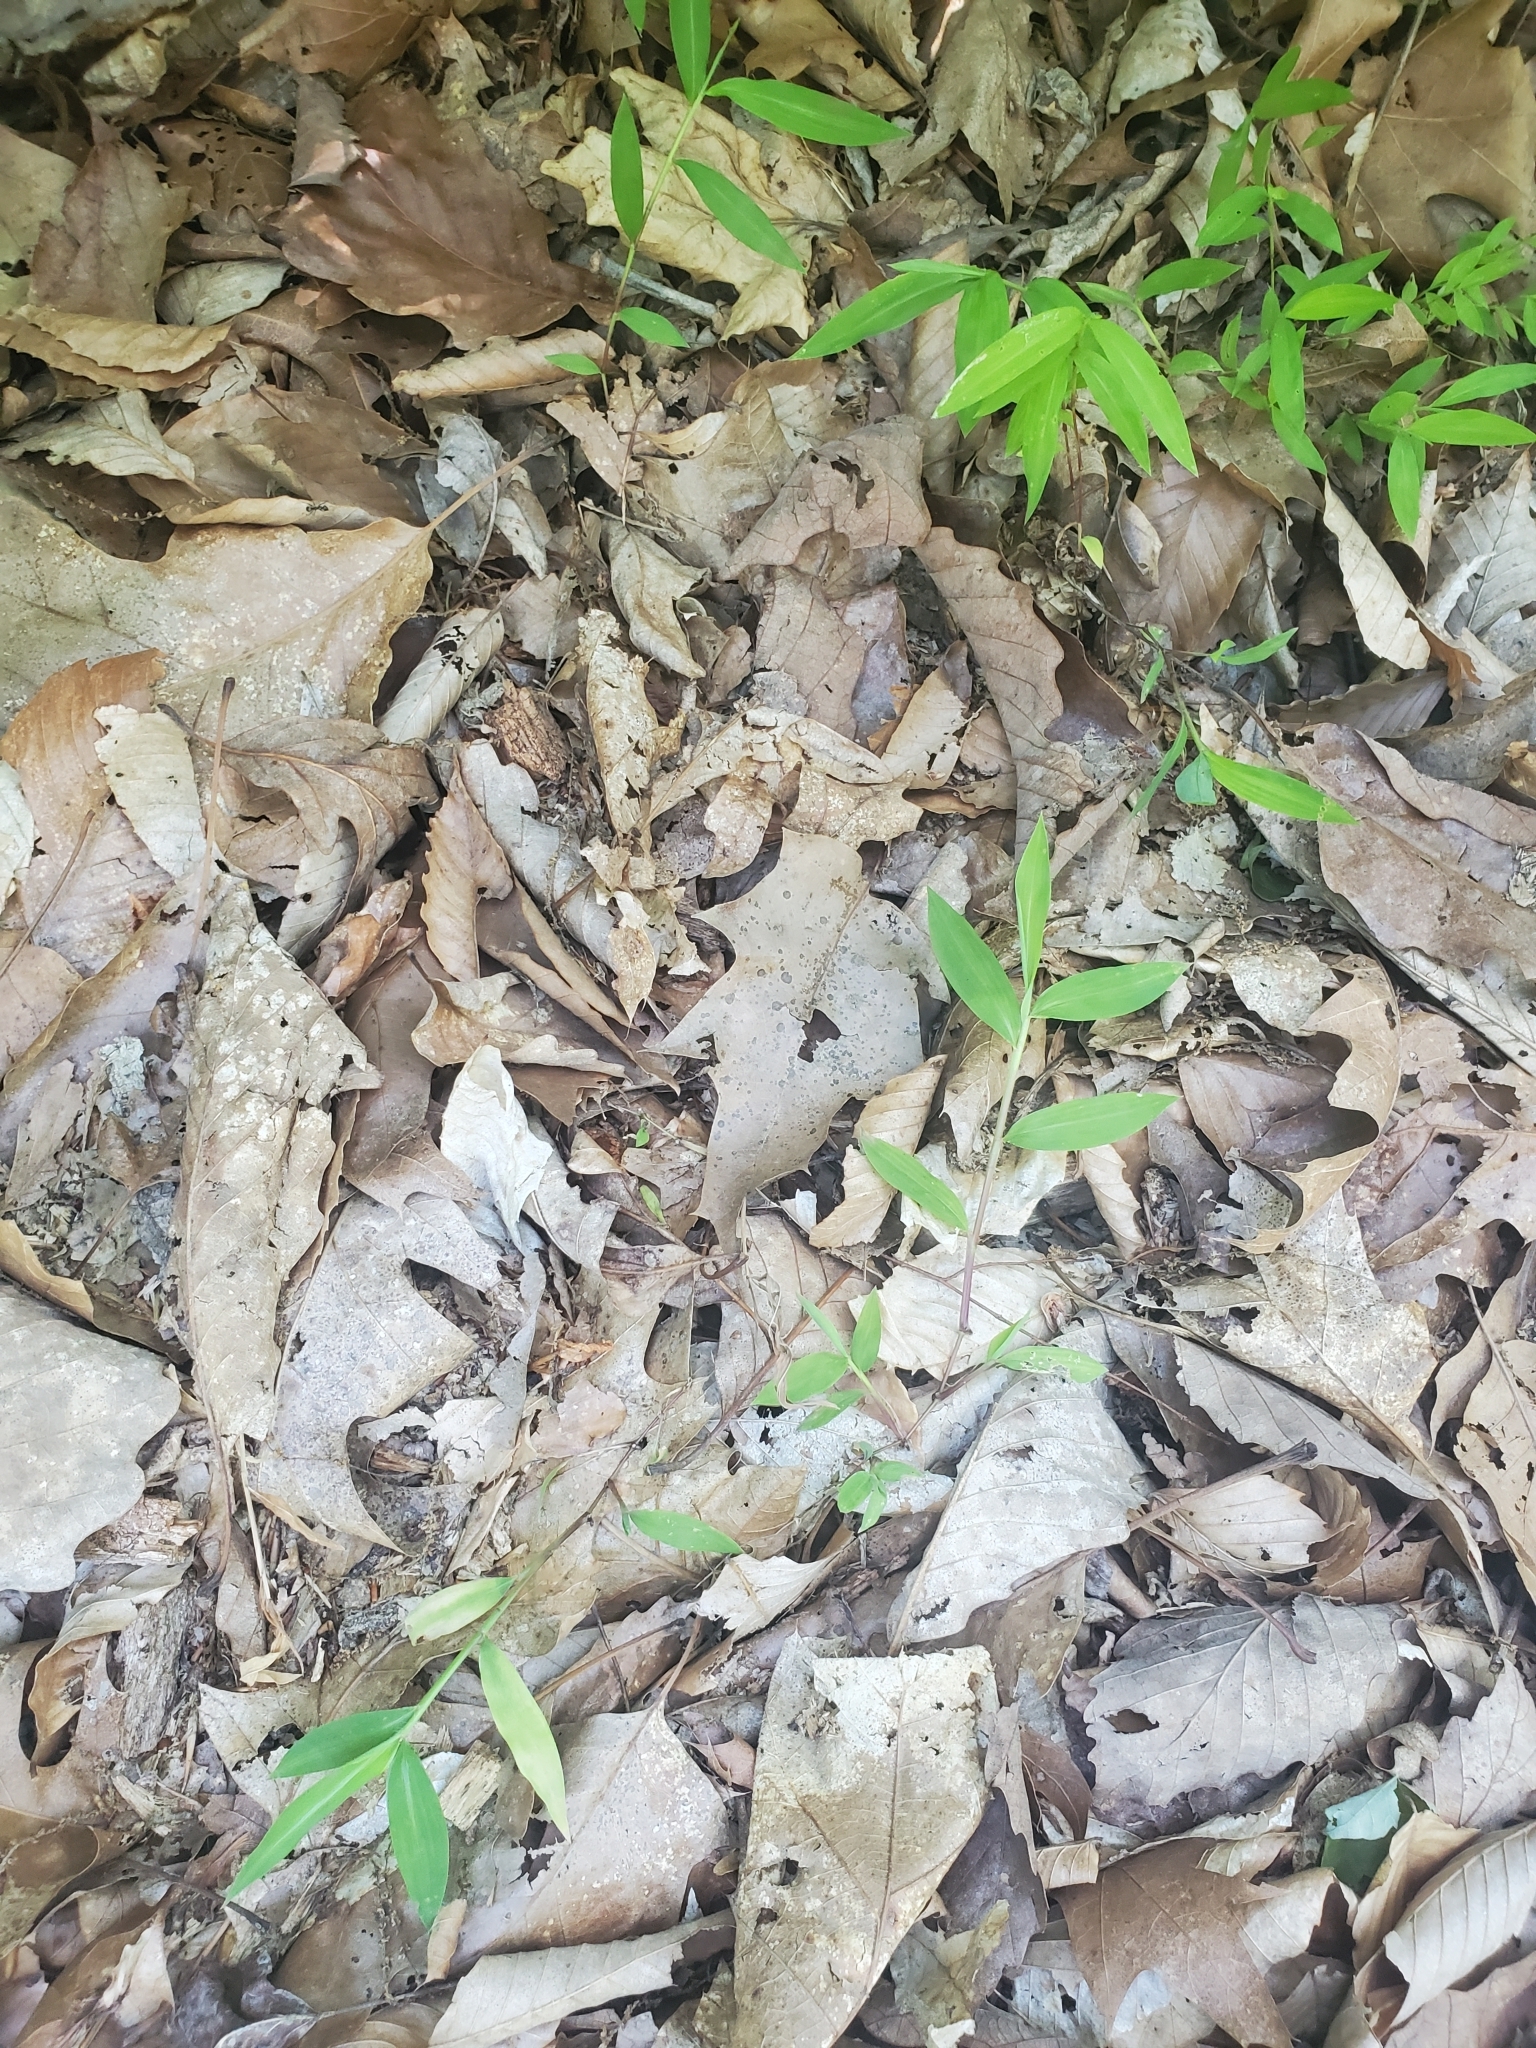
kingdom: Plantae
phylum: Tracheophyta
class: Liliopsida
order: Poales
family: Poaceae
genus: Microstegium
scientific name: Microstegium vimineum
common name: Japanese stiltgrass
